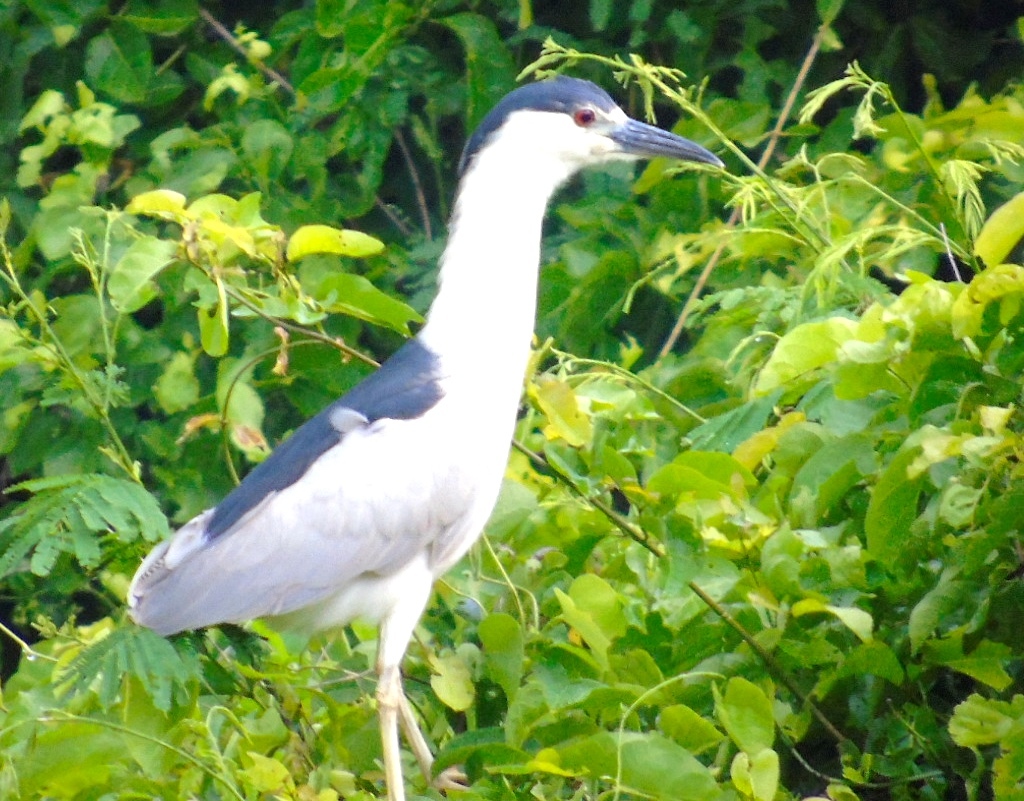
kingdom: Animalia
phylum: Chordata
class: Aves
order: Pelecaniformes
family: Ardeidae
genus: Nycticorax
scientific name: Nycticorax nycticorax
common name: Black-crowned night heron
